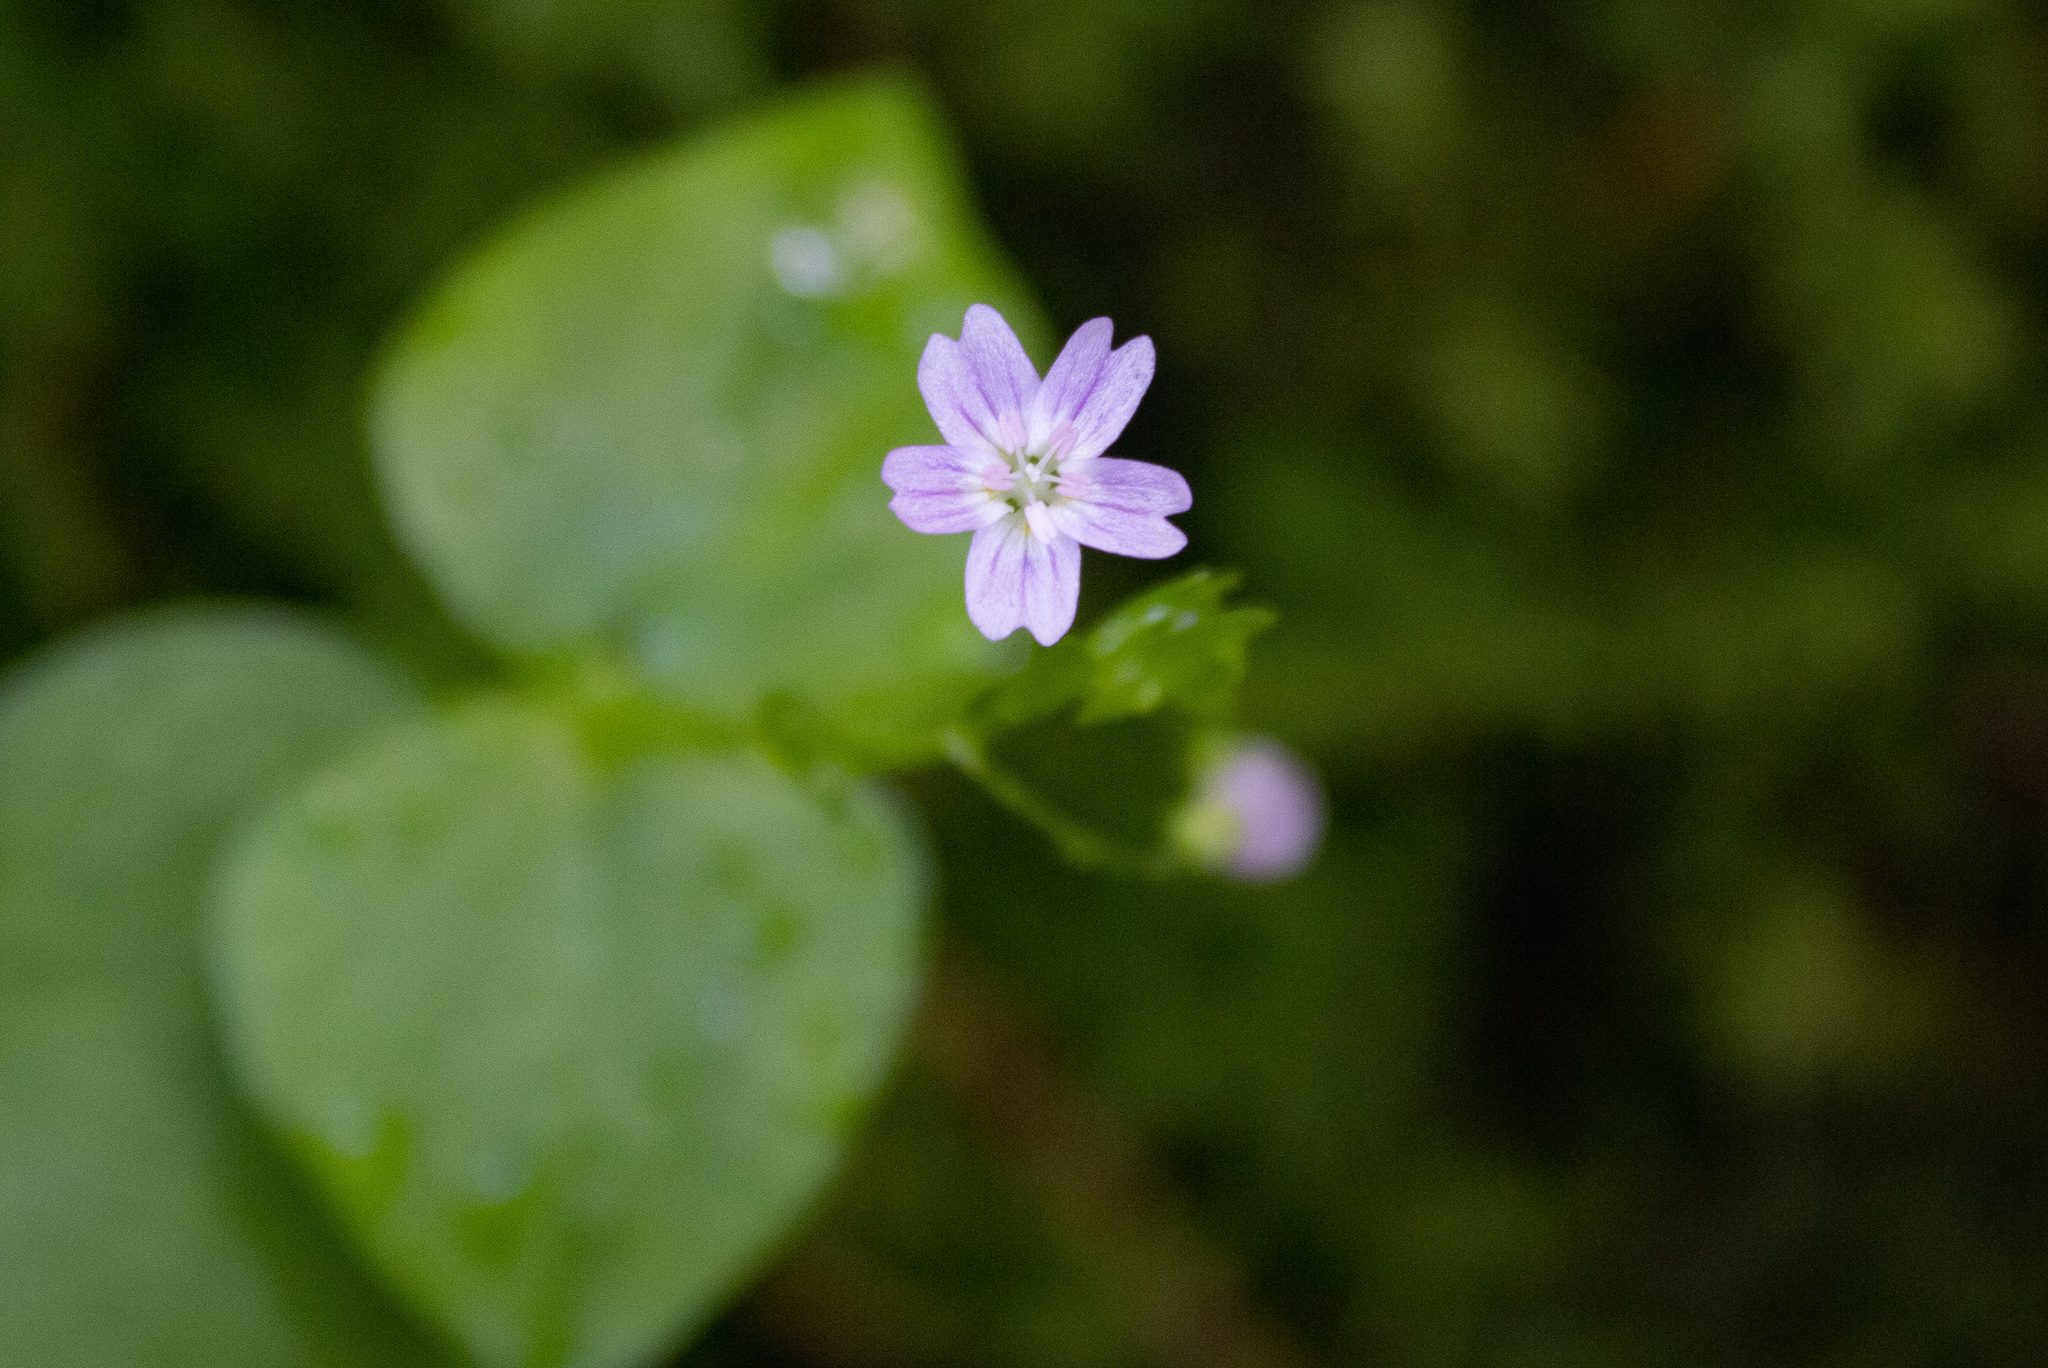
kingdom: Plantae
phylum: Tracheophyta
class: Magnoliopsida
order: Caryophyllales
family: Montiaceae
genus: Claytonia
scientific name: Claytonia sibirica
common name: Pink purslane
